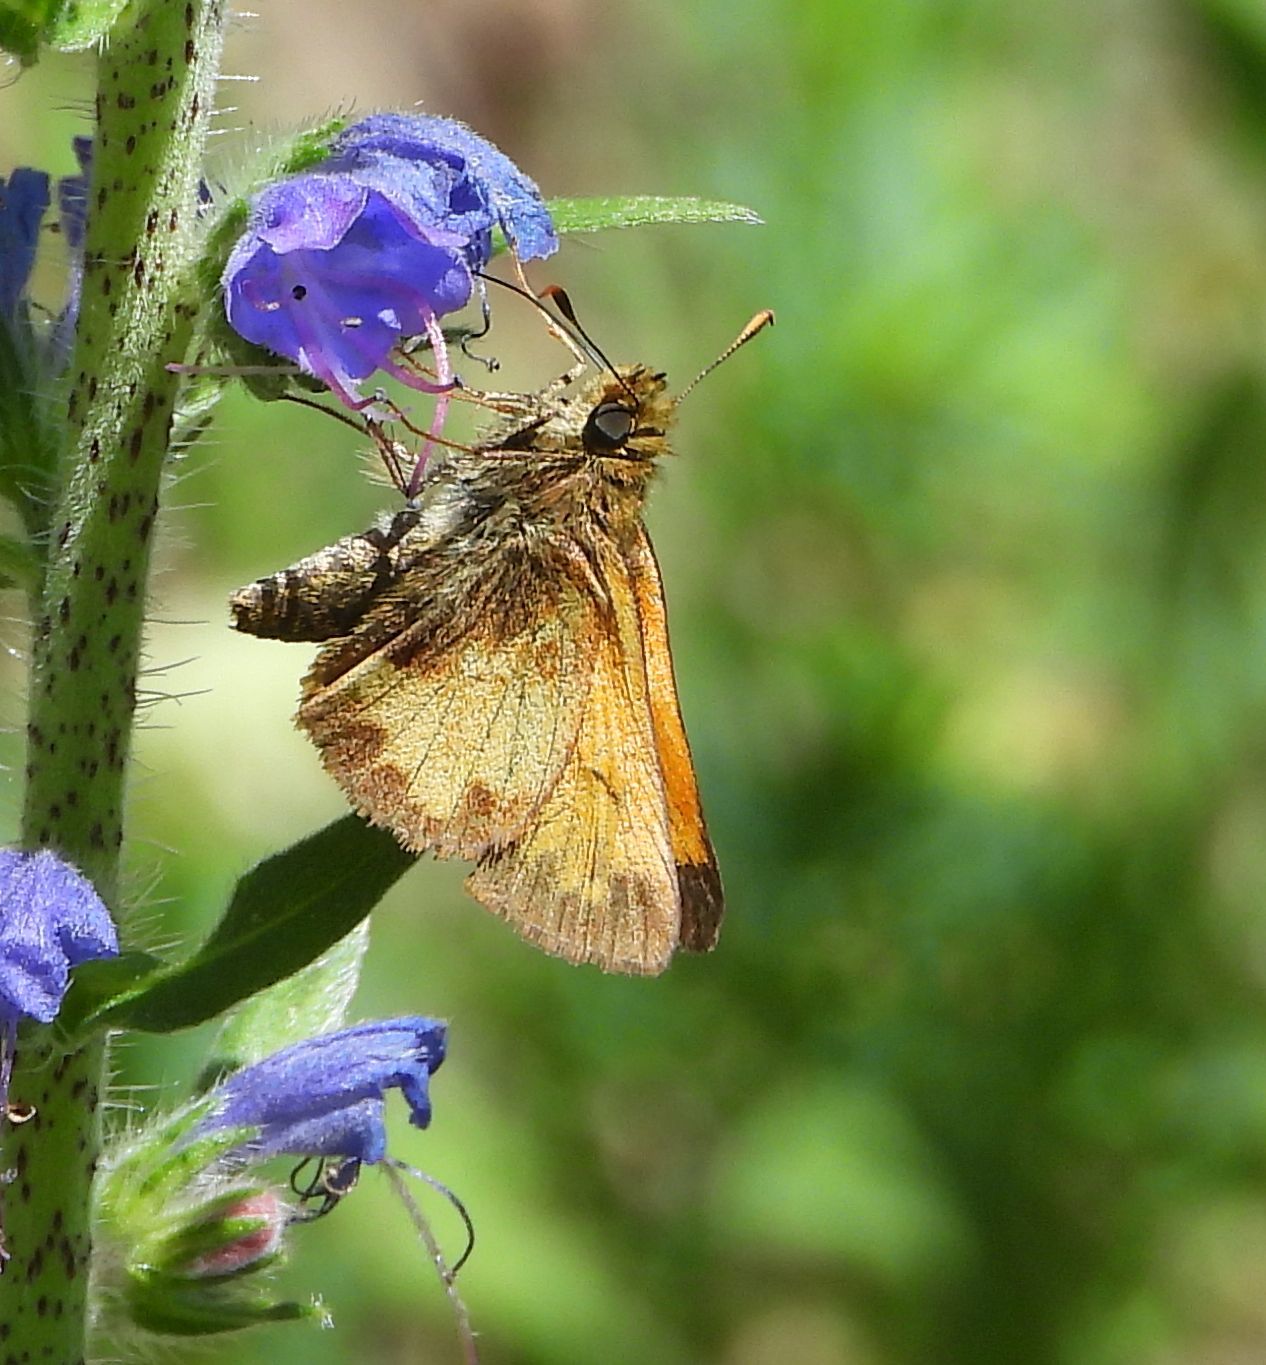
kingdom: Animalia
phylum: Arthropoda
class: Insecta
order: Lepidoptera
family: Hesperiidae
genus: Lon
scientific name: Lon hobomok
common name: Hobomok skipper
